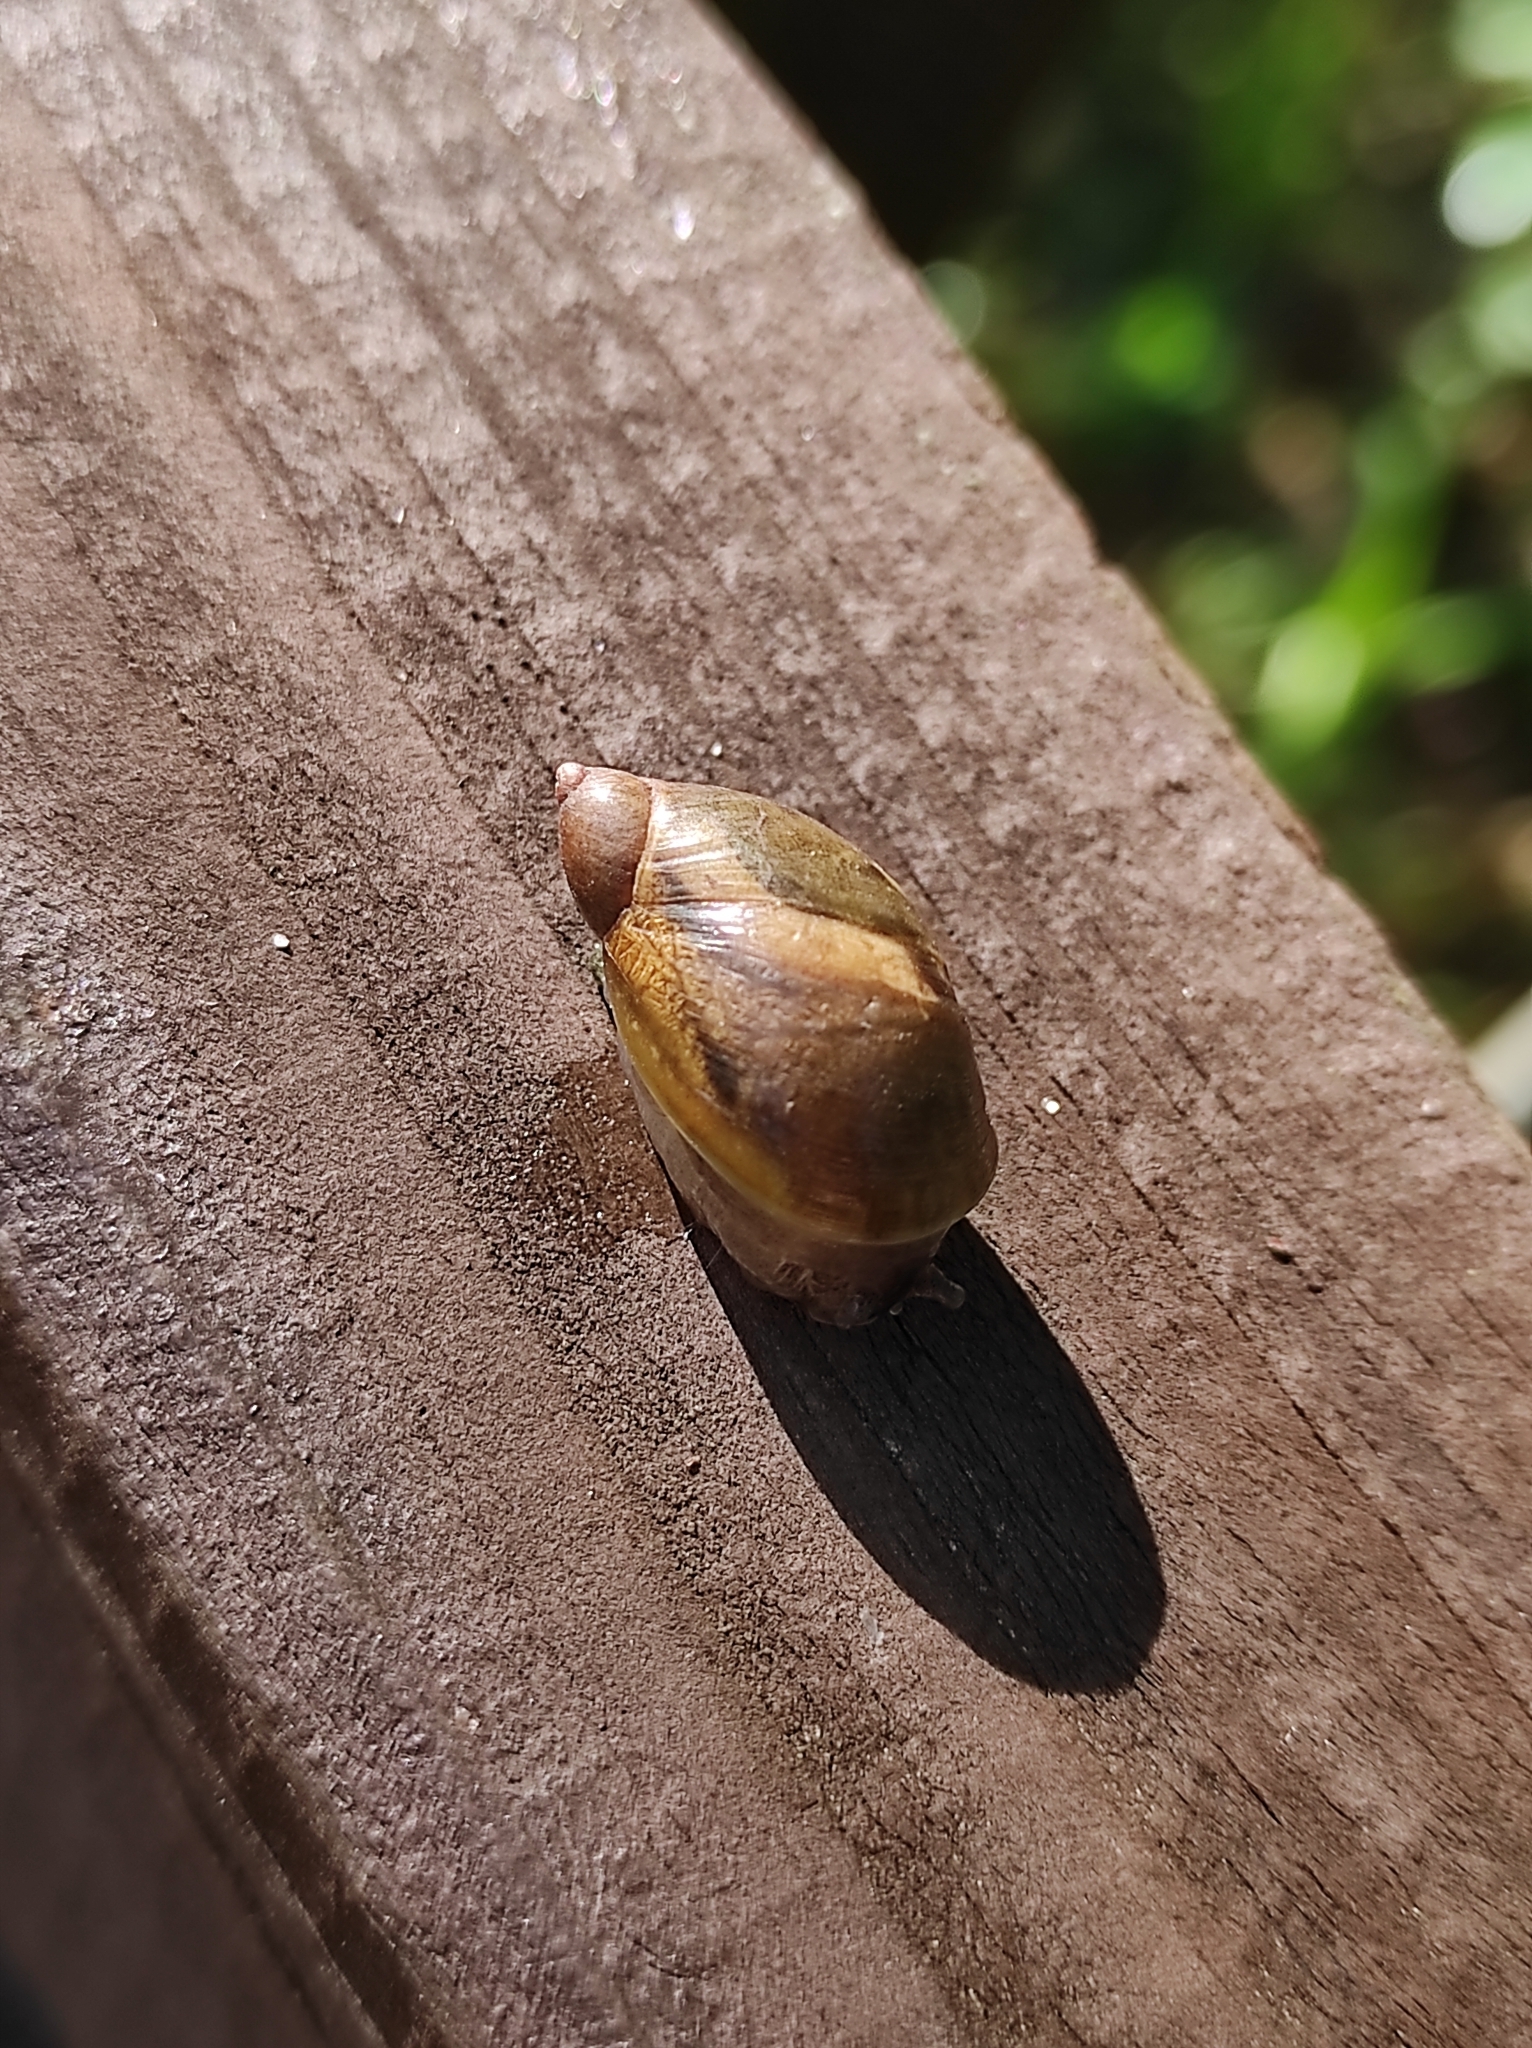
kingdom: Animalia
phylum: Mollusca
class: Gastropoda
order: Stylommatophora
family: Succineidae
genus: Succinea
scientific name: Succinea putris
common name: European ambersnail
